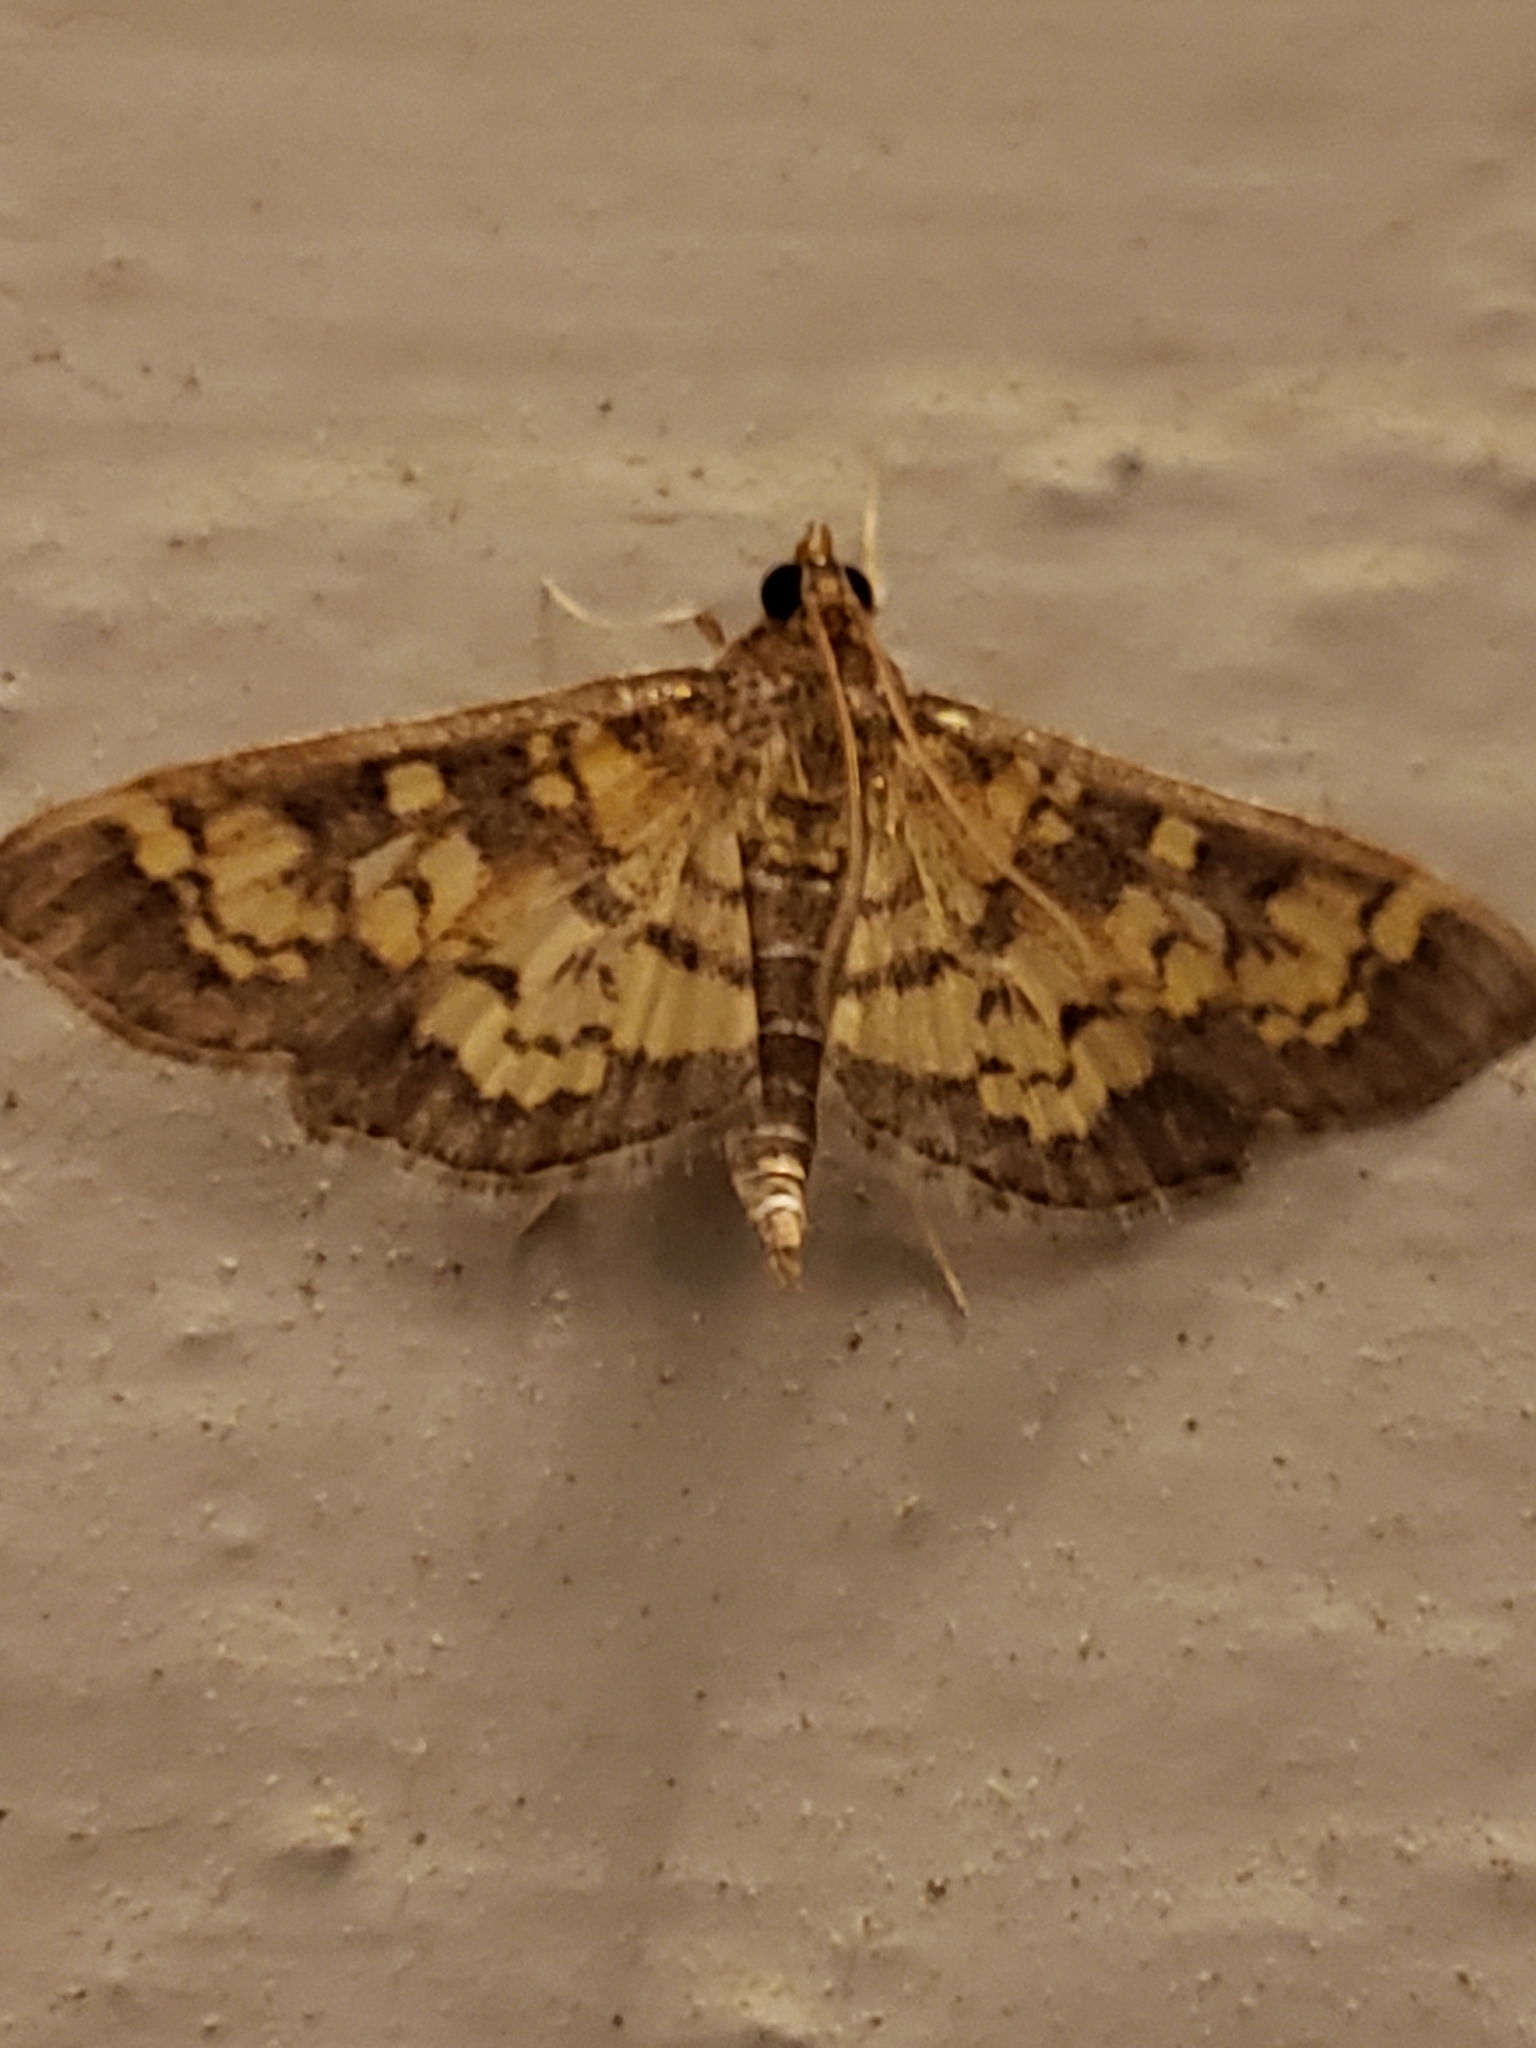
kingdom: Animalia
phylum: Arthropoda
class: Insecta
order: Lepidoptera
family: Crambidae
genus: Epipagis
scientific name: Epipagis adipaloides
